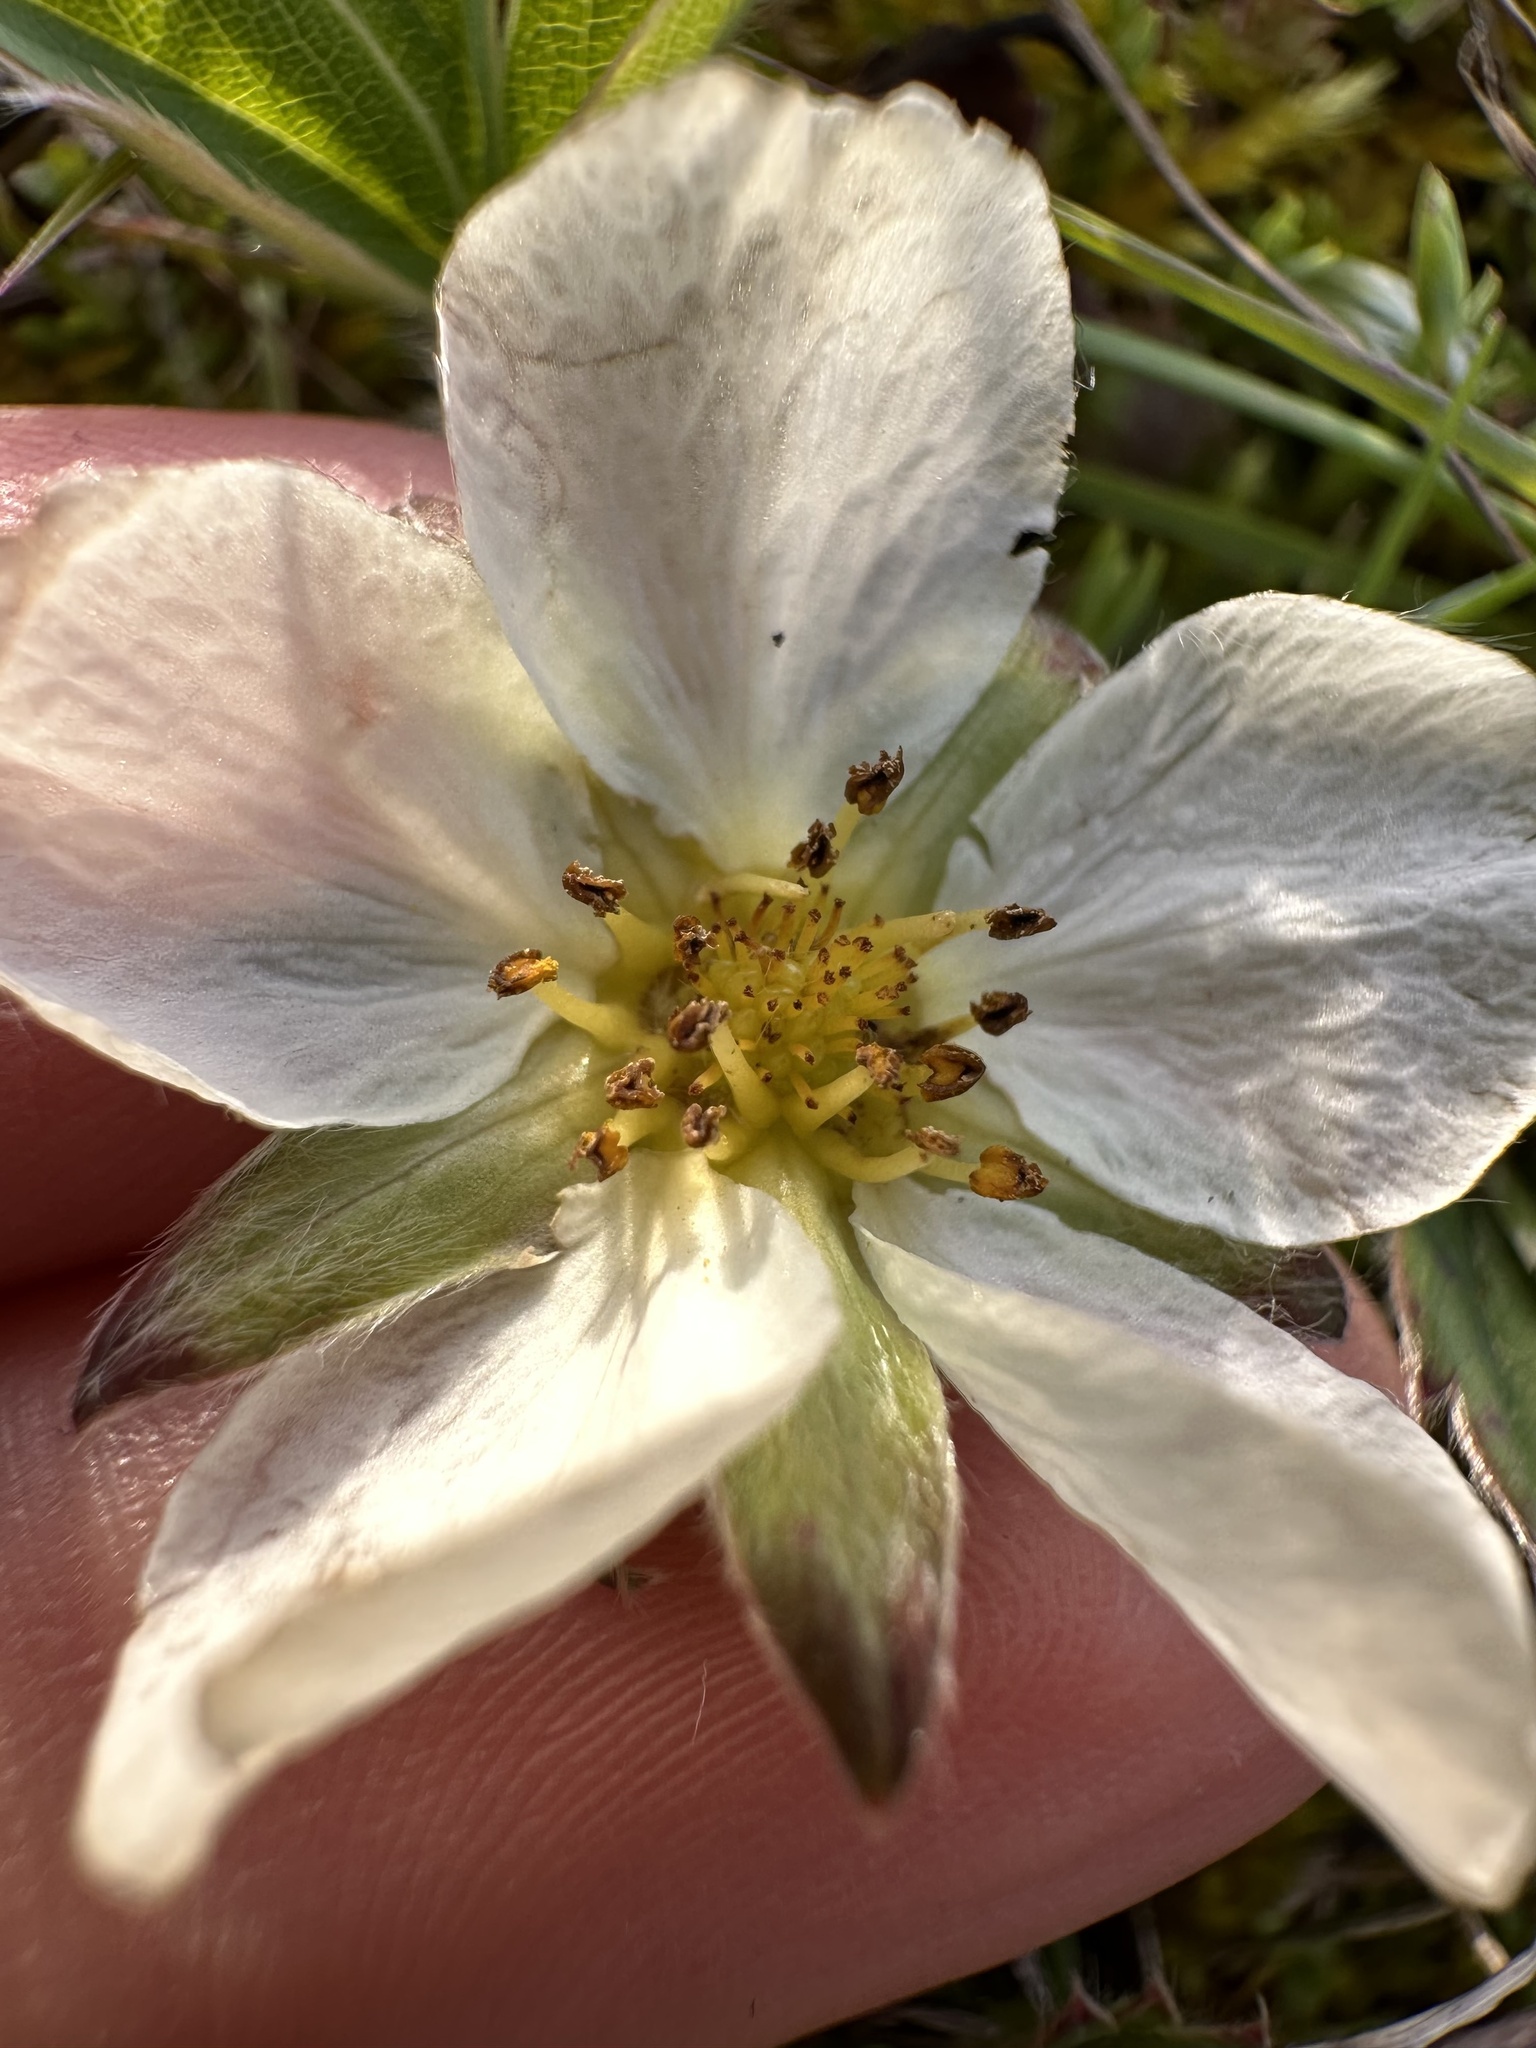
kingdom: Plantae
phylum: Tracheophyta
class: Magnoliopsida
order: Rosales
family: Rosaceae
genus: Fragaria
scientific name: Fragaria virginiana
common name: Thickleaved wild strawberry
